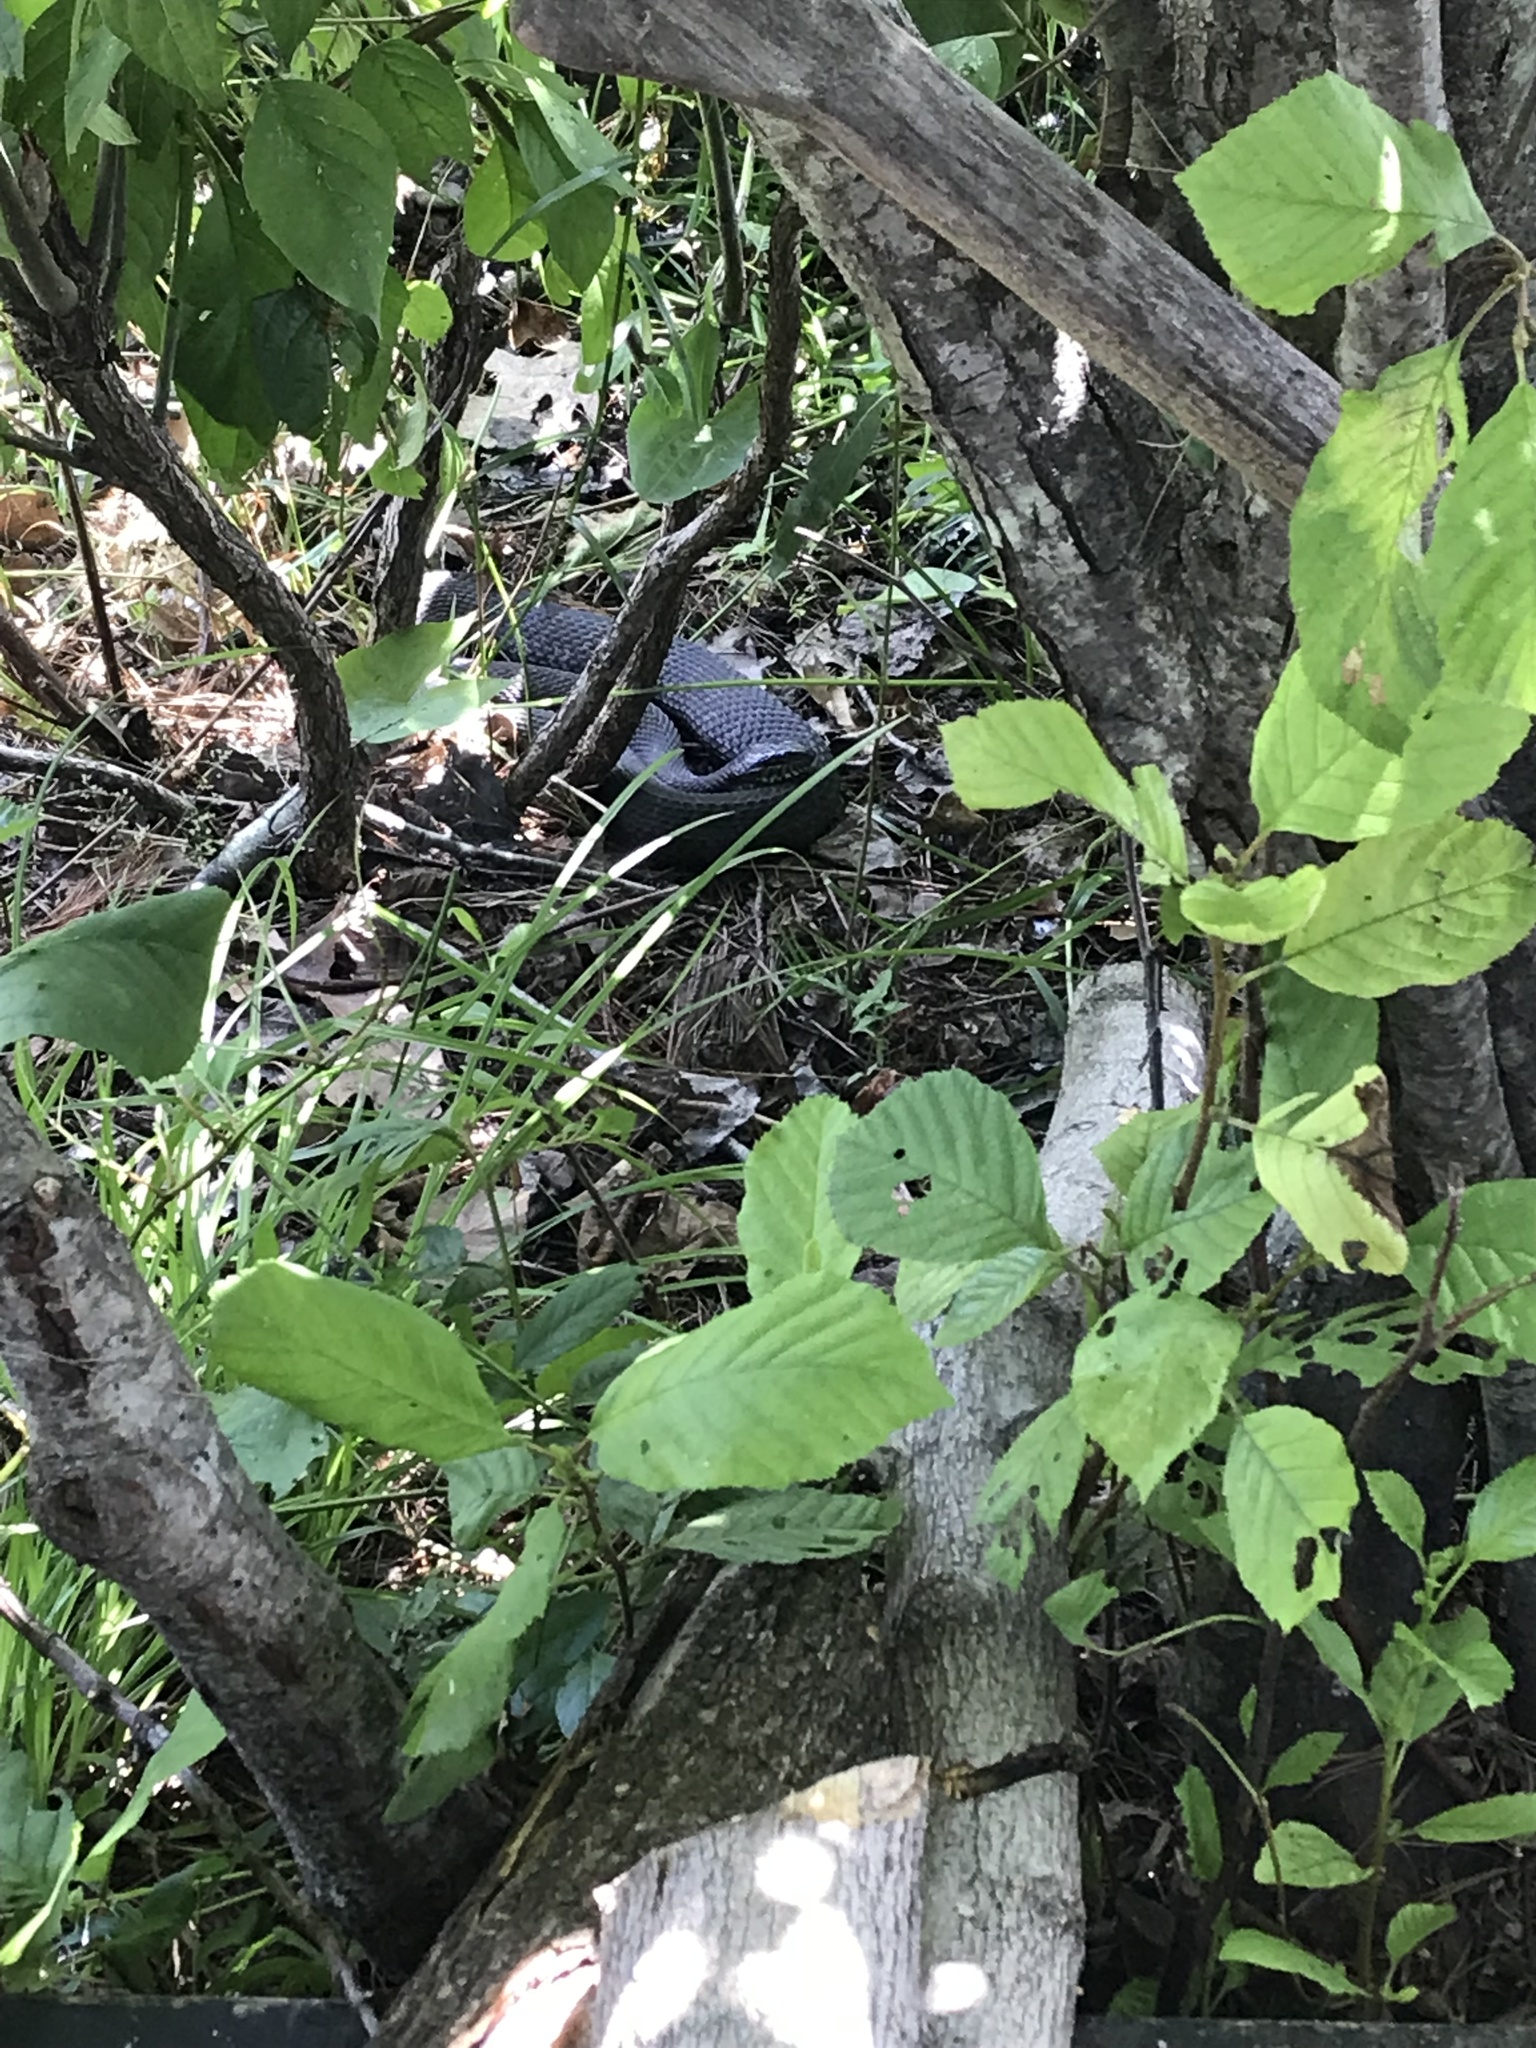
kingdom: Animalia
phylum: Chordata
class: Squamata
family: Colubridae
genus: Nerodia
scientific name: Nerodia sipedon
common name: Northern water snake
